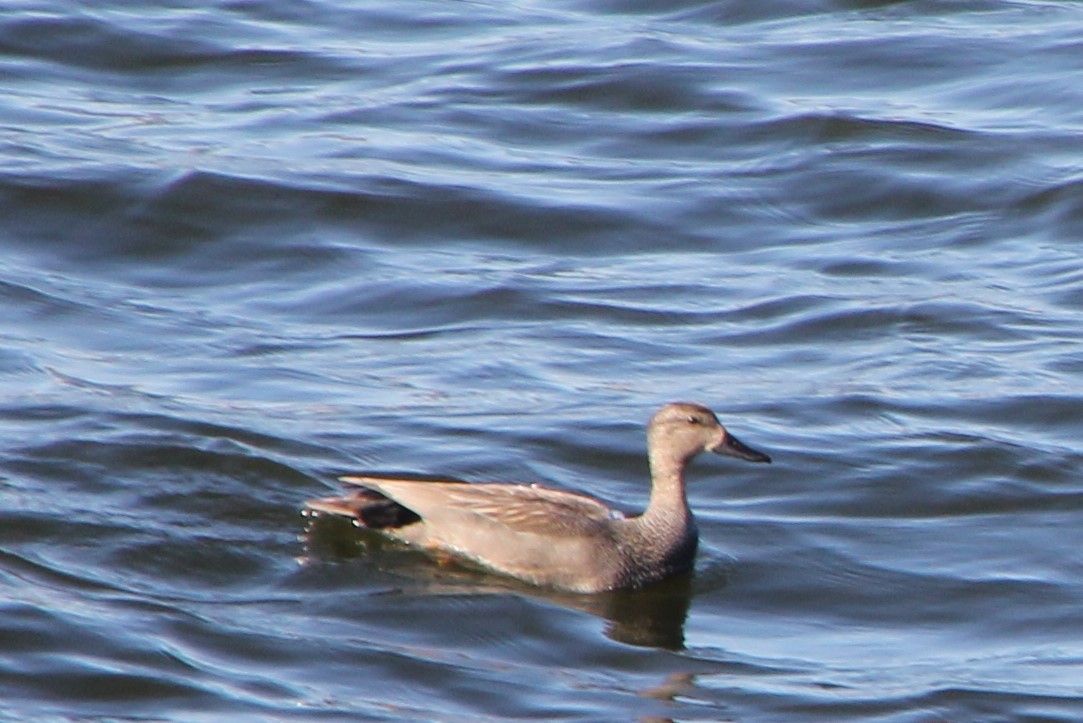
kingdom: Animalia
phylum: Chordata
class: Aves
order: Anseriformes
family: Anatidae
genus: Mareca
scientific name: Mareca strepera
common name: Gadwall
